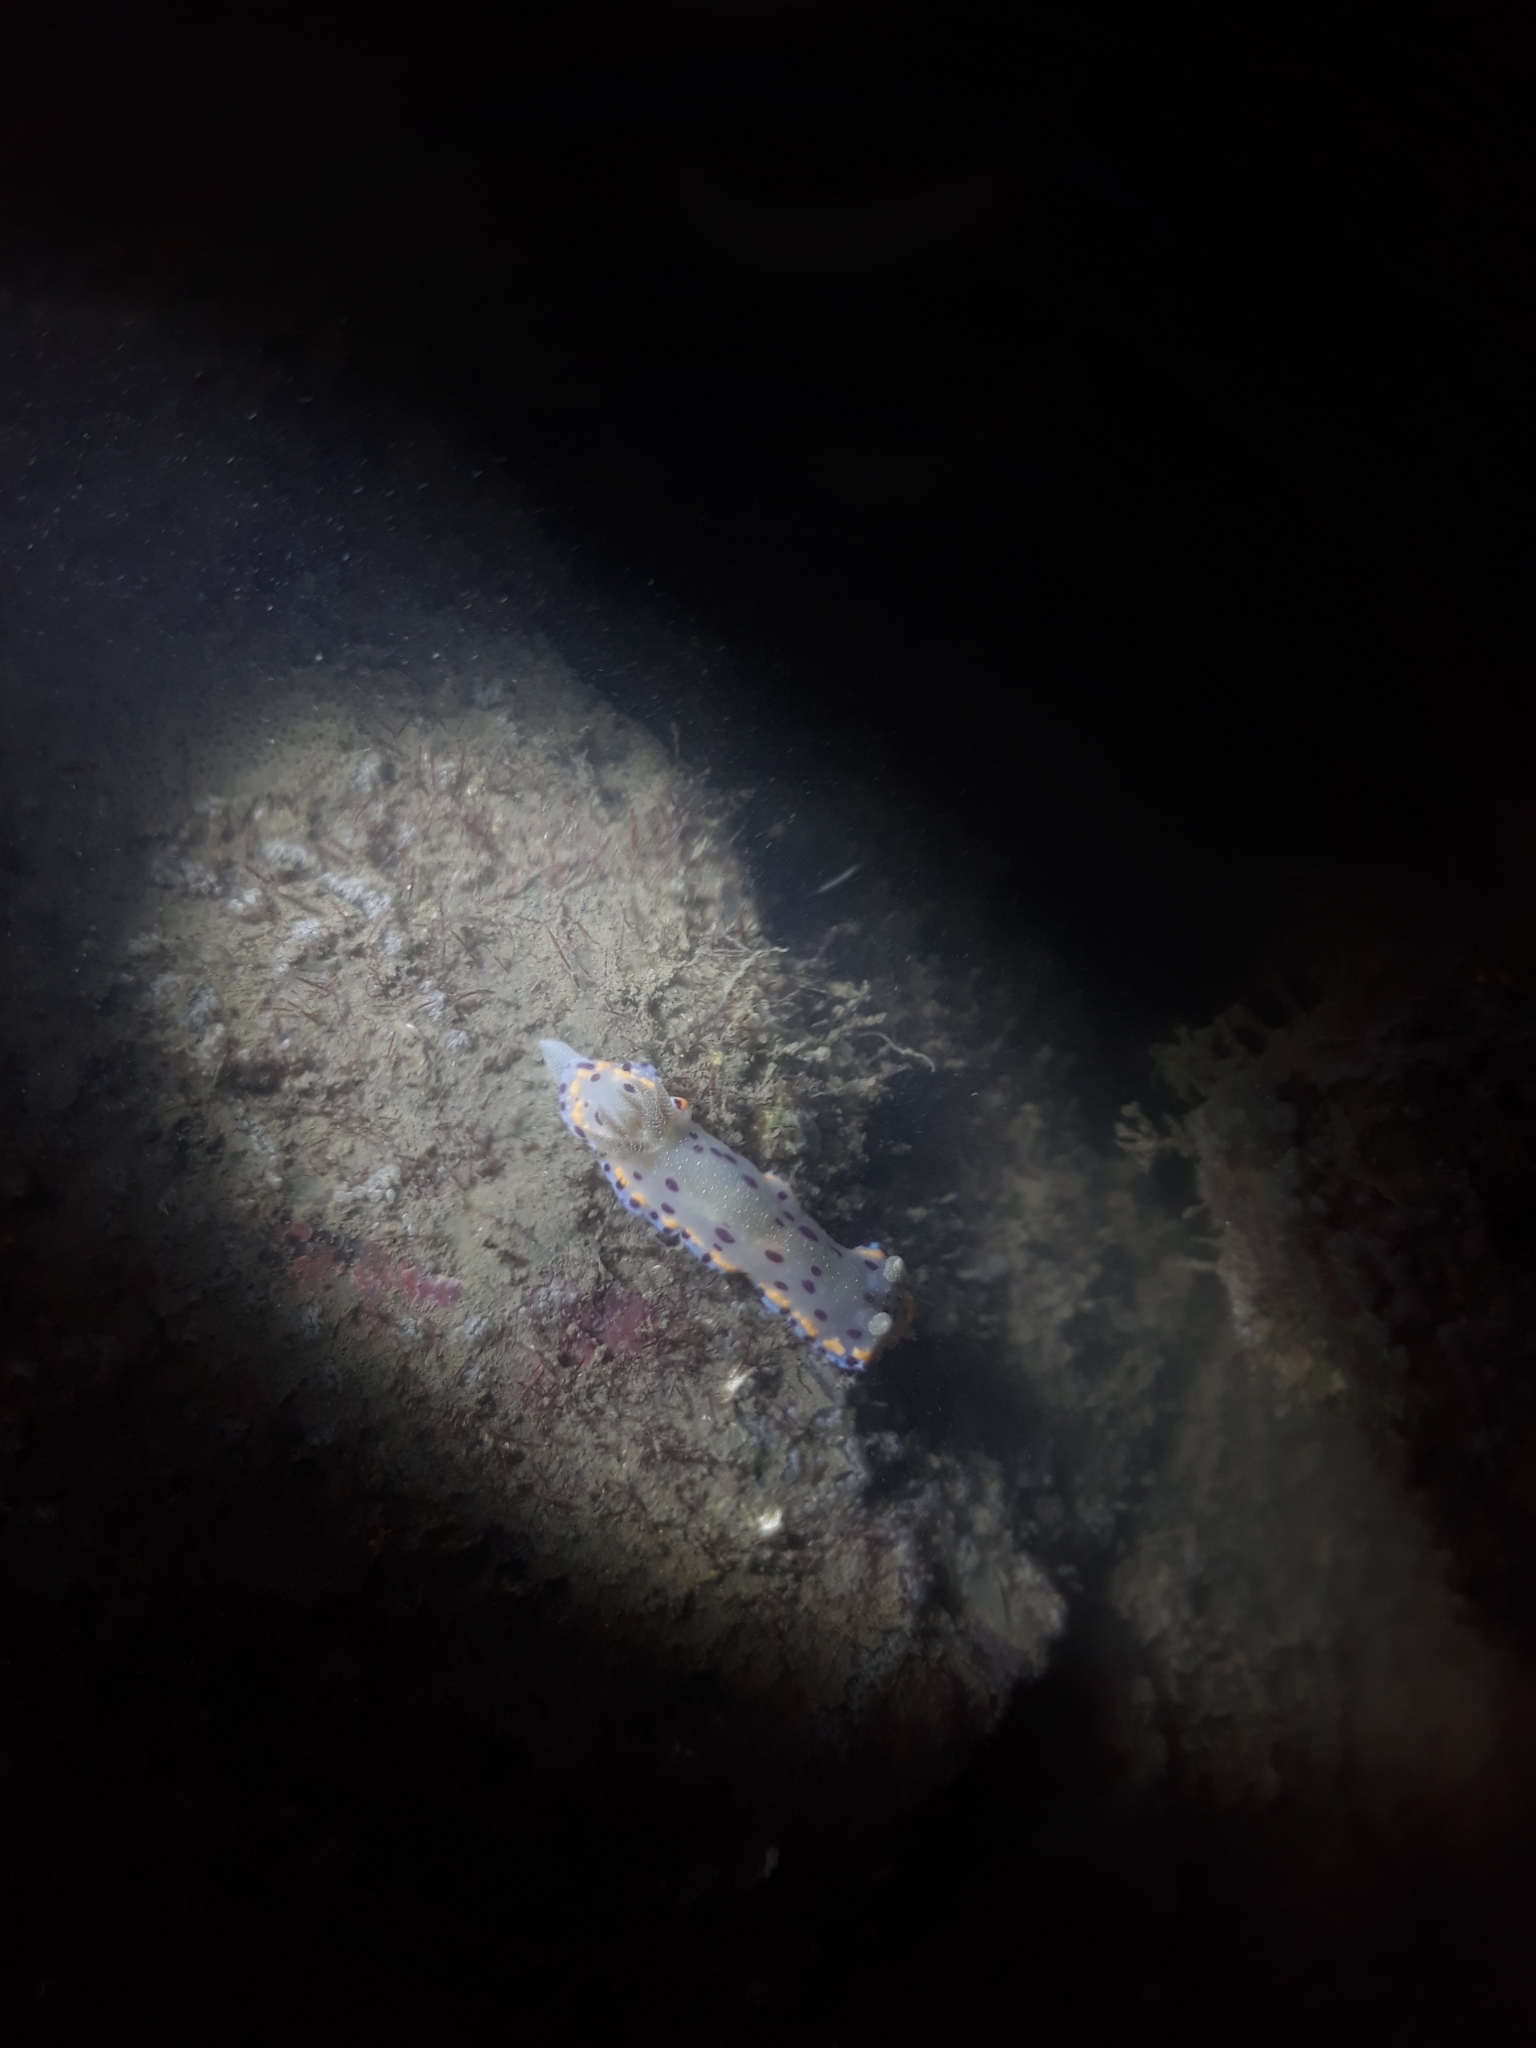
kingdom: Animalia
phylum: Mollusca
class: Gastropoda
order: Nudibranchia
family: Chromodorididae
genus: Goniobranchus
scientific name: Goniobranchus bombayanus
